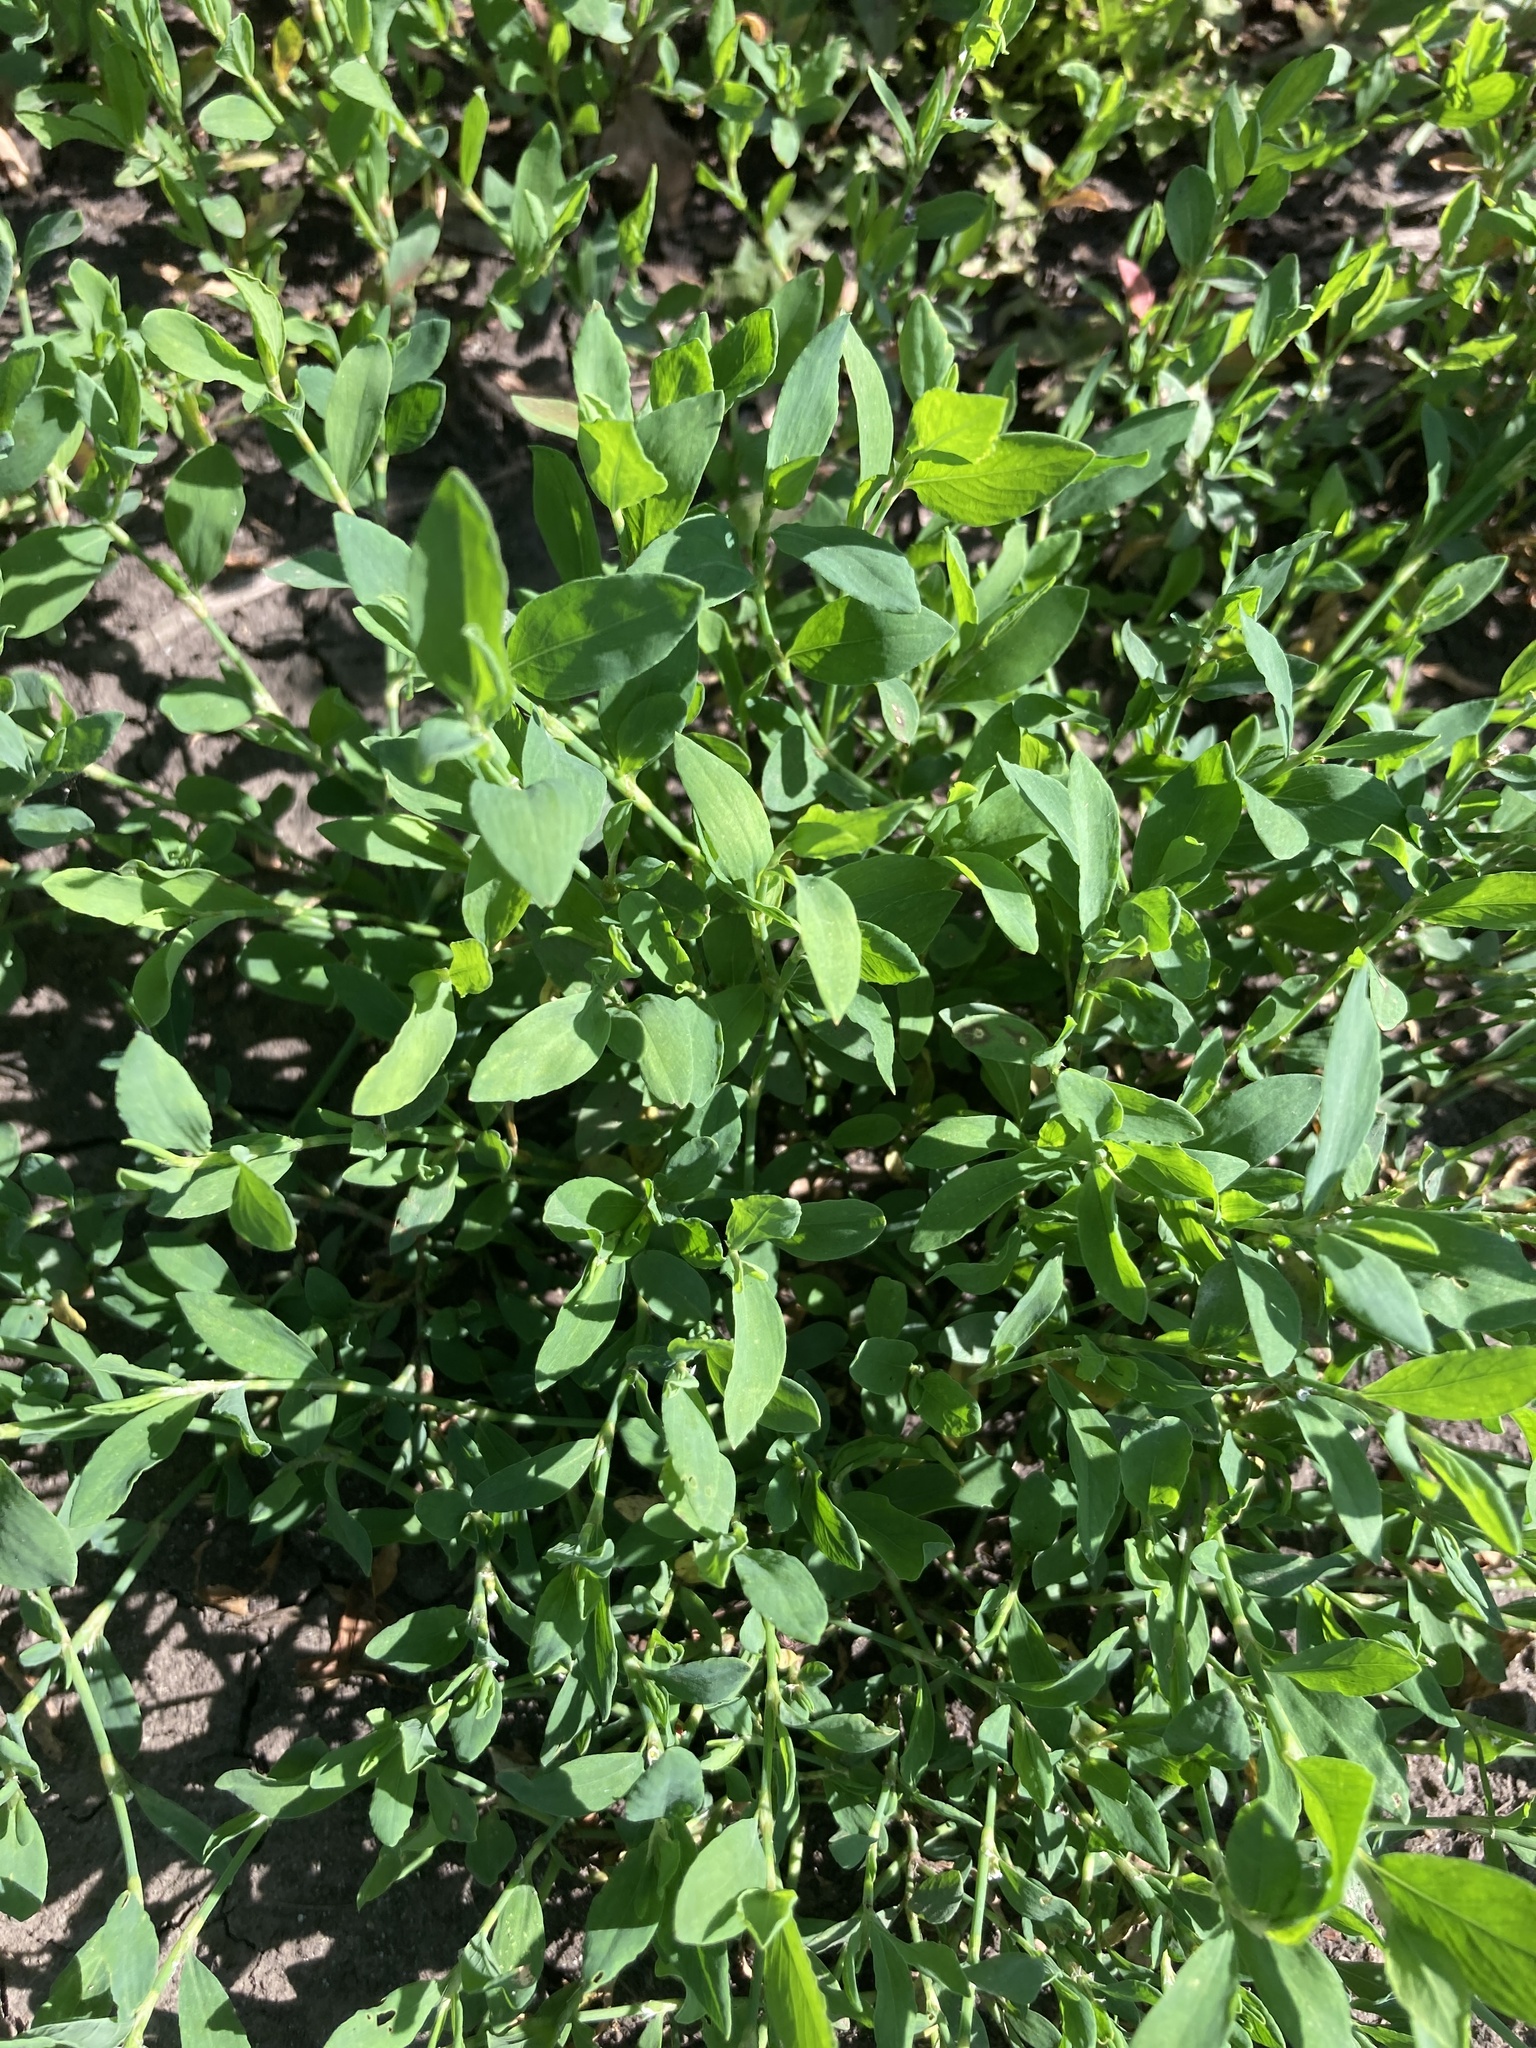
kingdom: Plantae
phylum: Tracheophyta
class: Magnoliopsida
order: Caryophyllales
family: Polygonaceae
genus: Polygonum
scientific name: Polygonum
